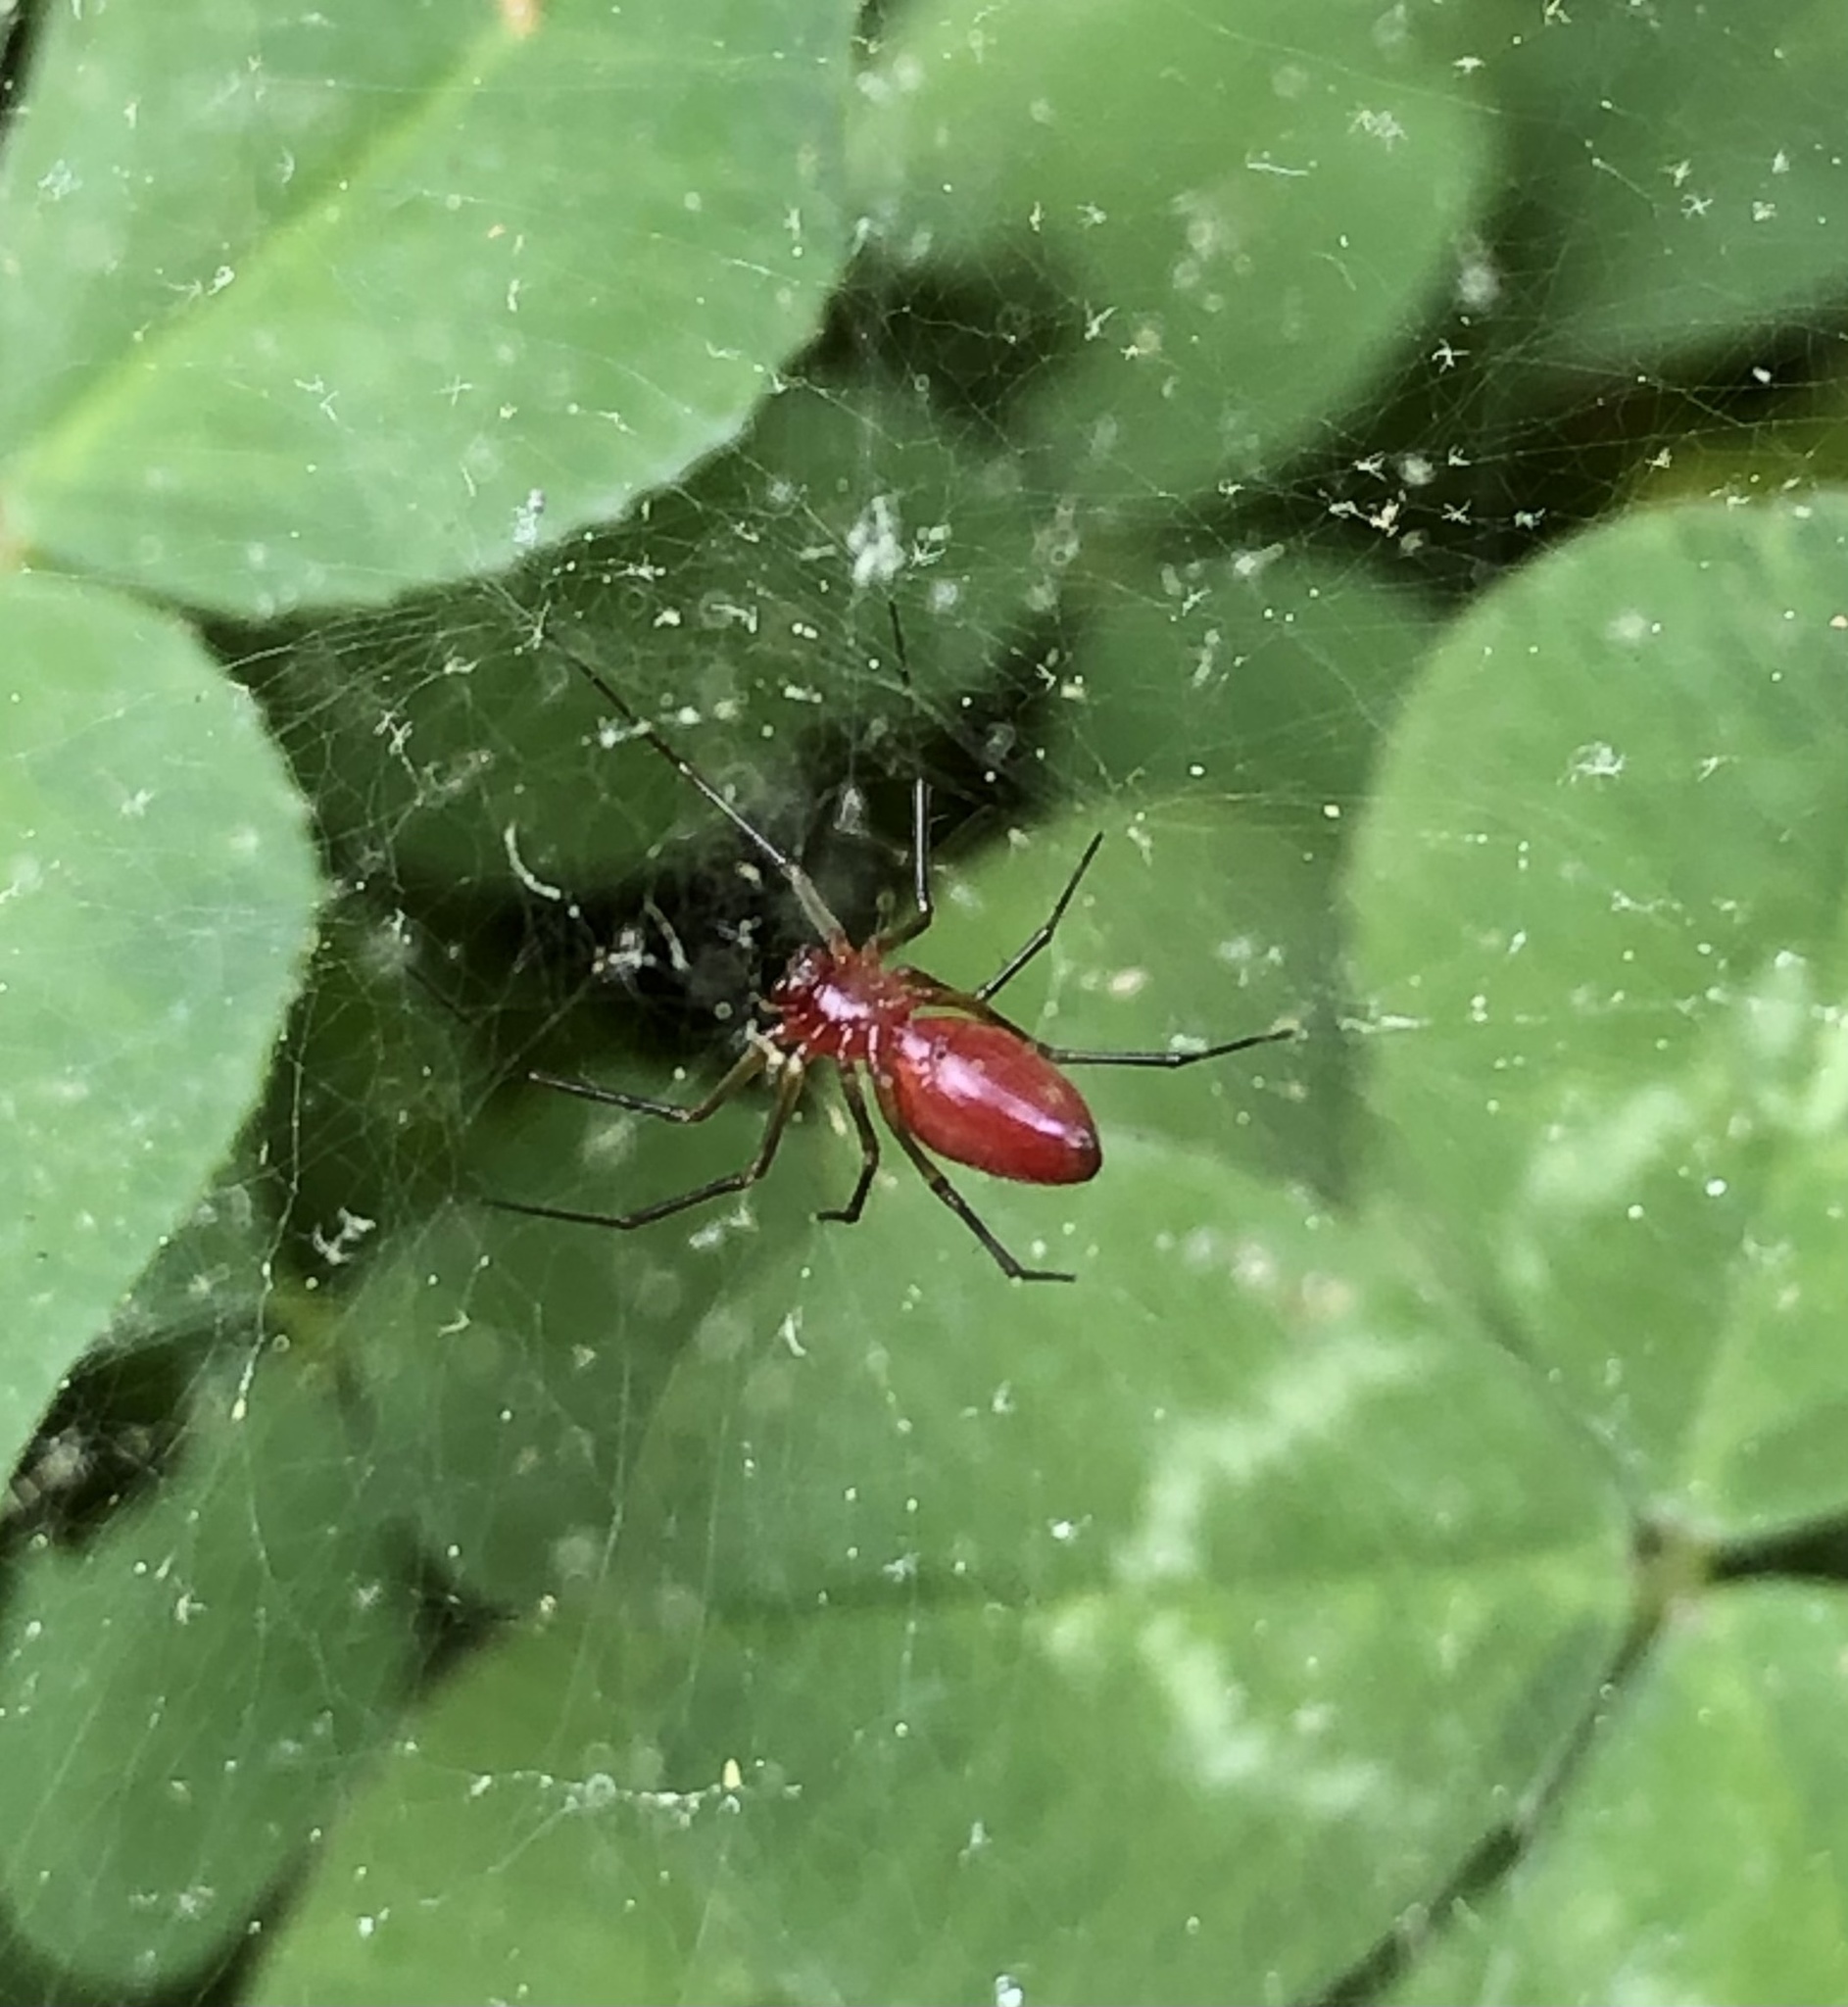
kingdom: Animalia
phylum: Arthropoda
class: Arachnida
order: Araneae
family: Linyphiidae
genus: Florinda
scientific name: Florinda coccinea
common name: Black-tailed red sheetweaver
